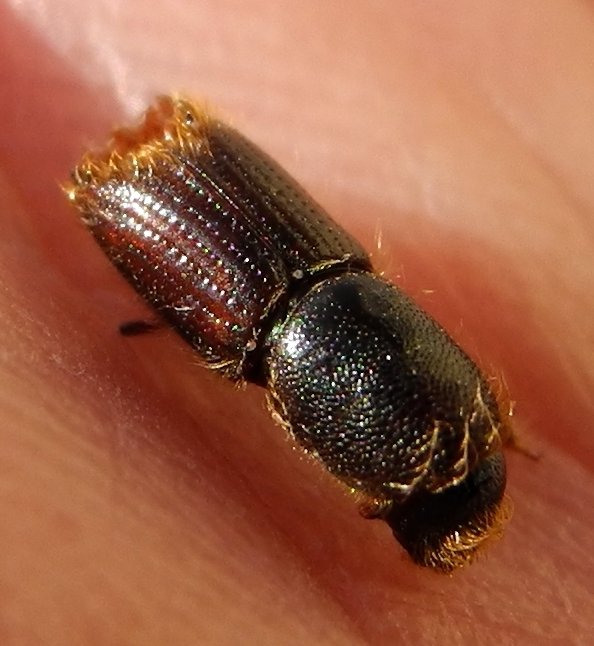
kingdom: Animalia
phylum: Arthropoda
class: Insecta
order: Coleoptera
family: Curculionidae
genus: Ips
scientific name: Ips typographus
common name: Eight-toothed spruce bark beetle
